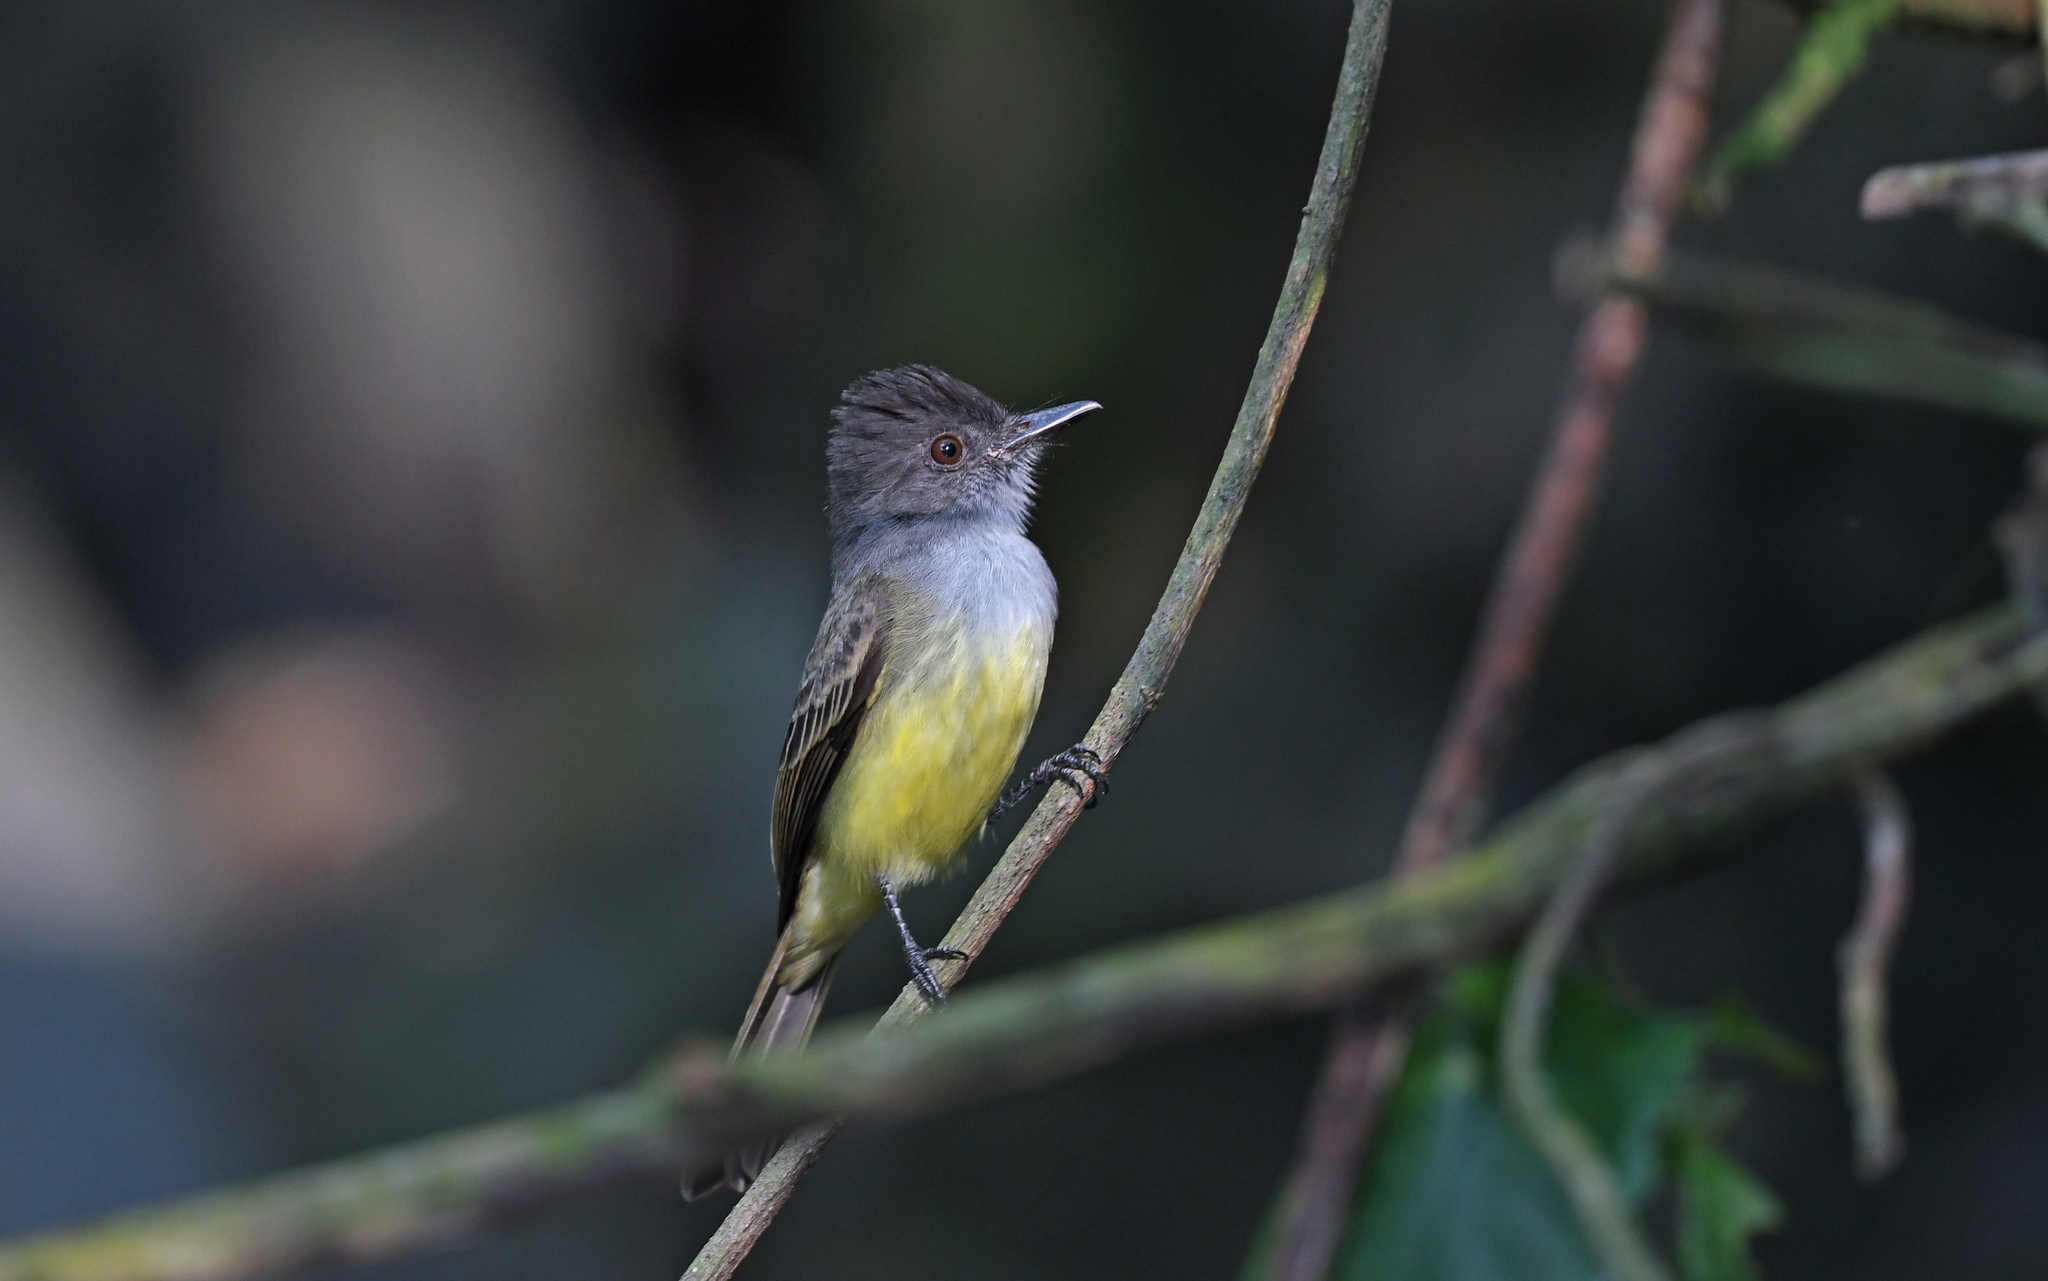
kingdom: Animalia
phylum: Chordata
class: Aves
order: Passeriformes
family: Tyrannidae
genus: Myiarchus
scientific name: Myiarchus cephalotes
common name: Pale-edged flycatcher
